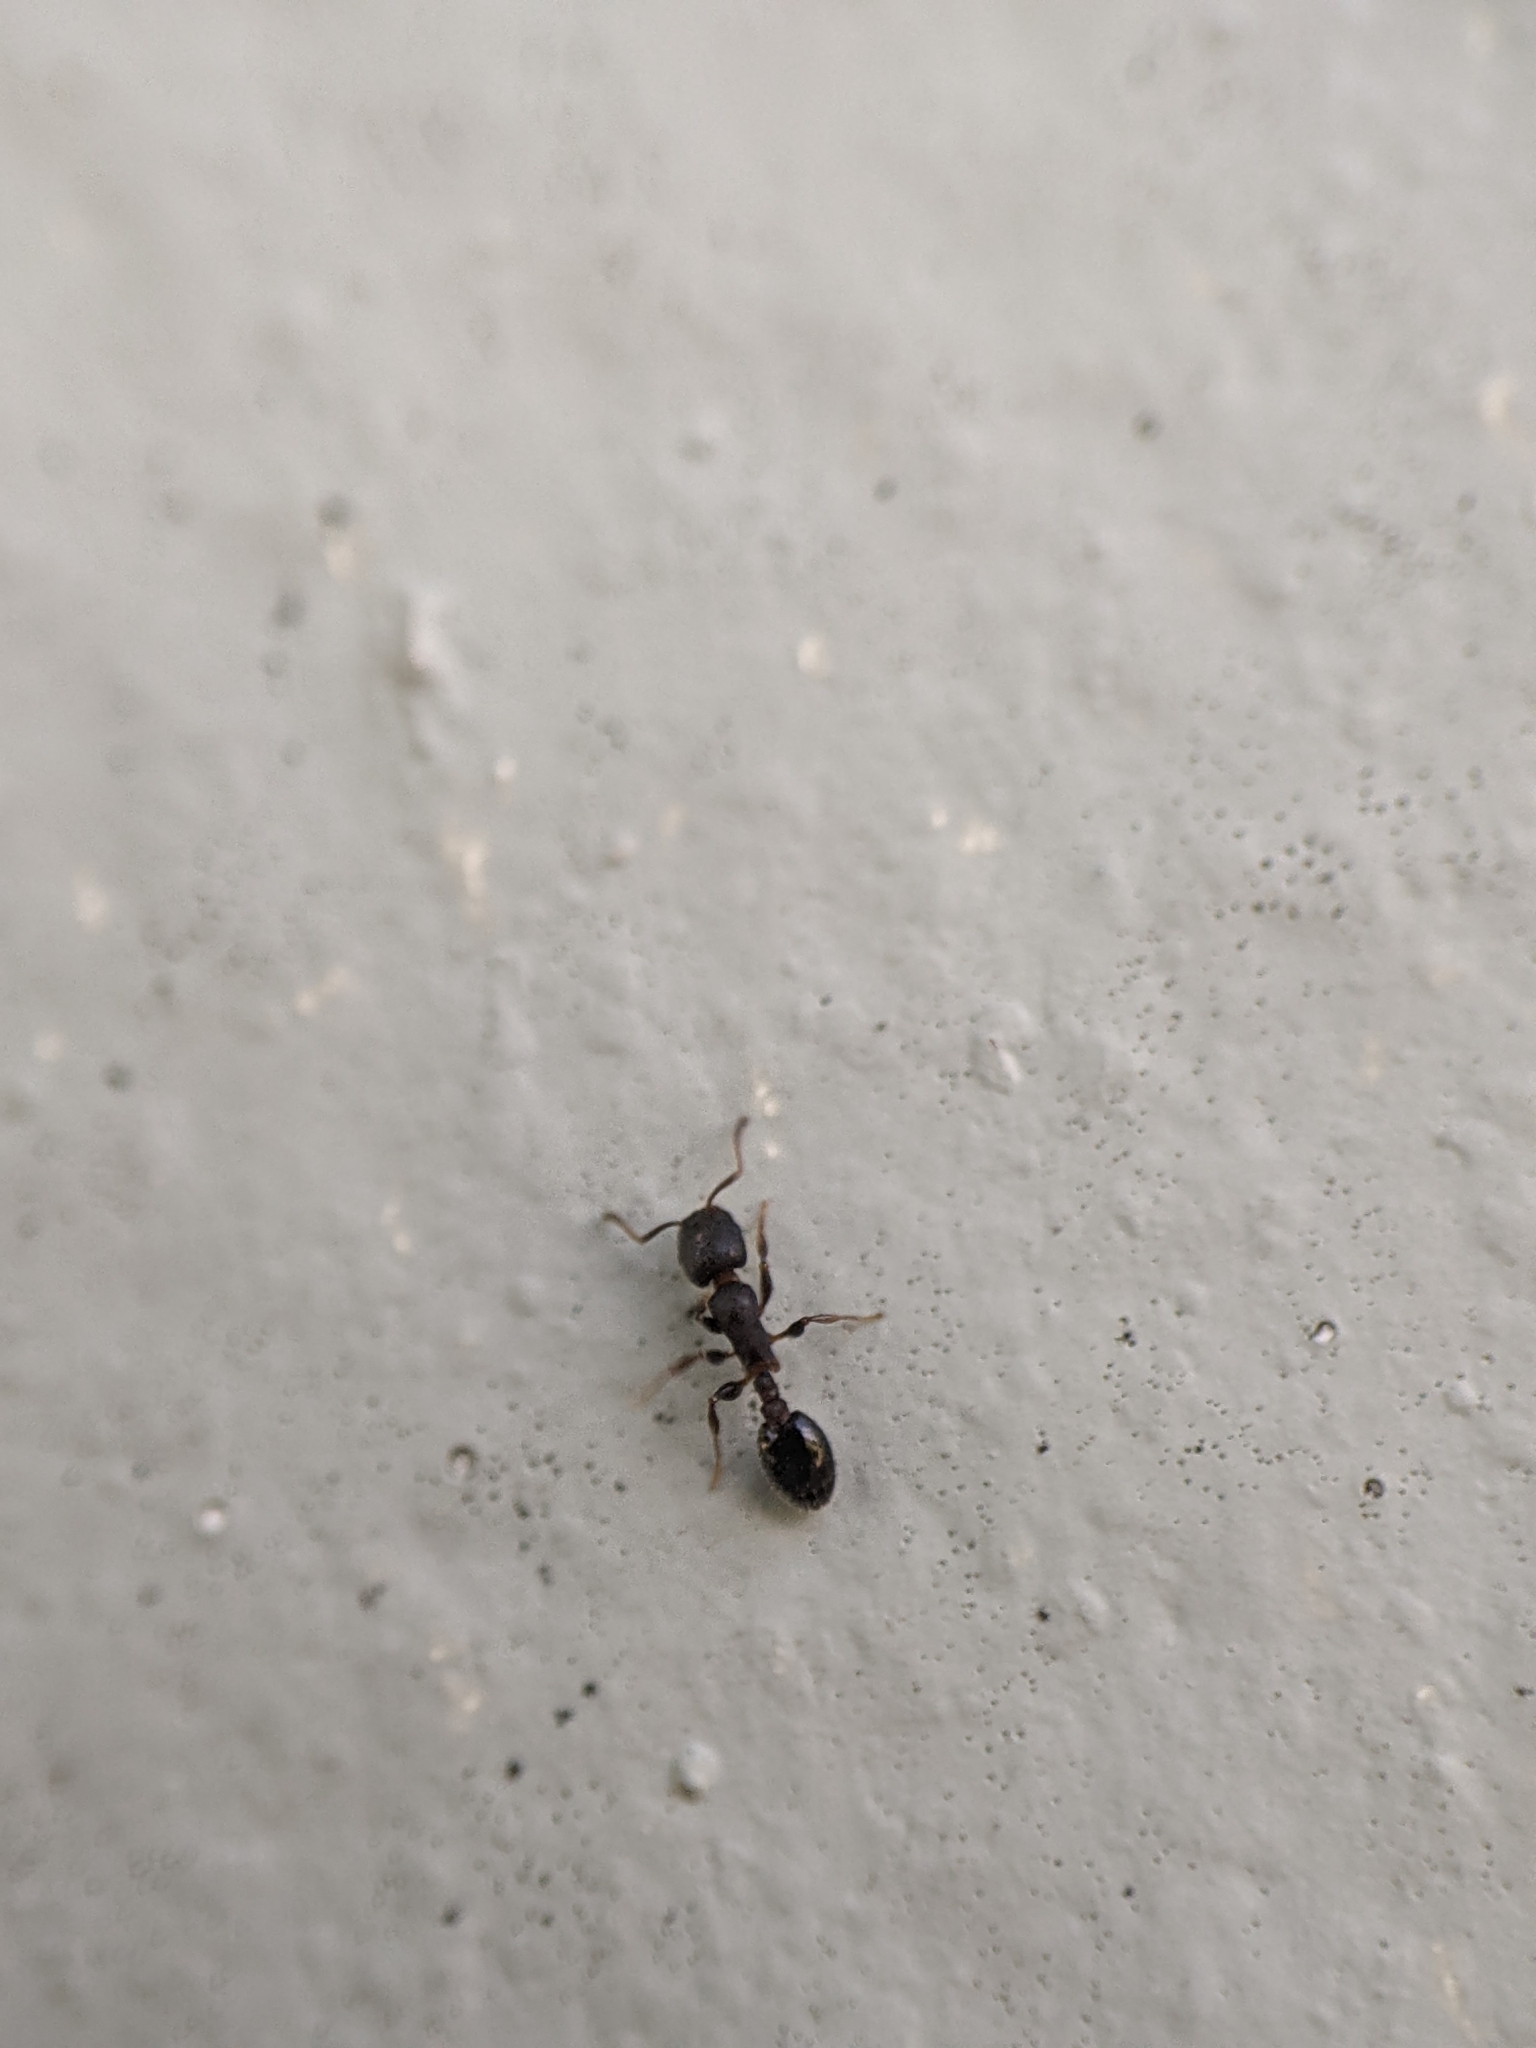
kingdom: Animalia
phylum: Arthropoda
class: Insecta
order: Hymenoptera
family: Formicidae
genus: Tetramorium
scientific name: Tetramorium immigrans
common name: Pavement ant
